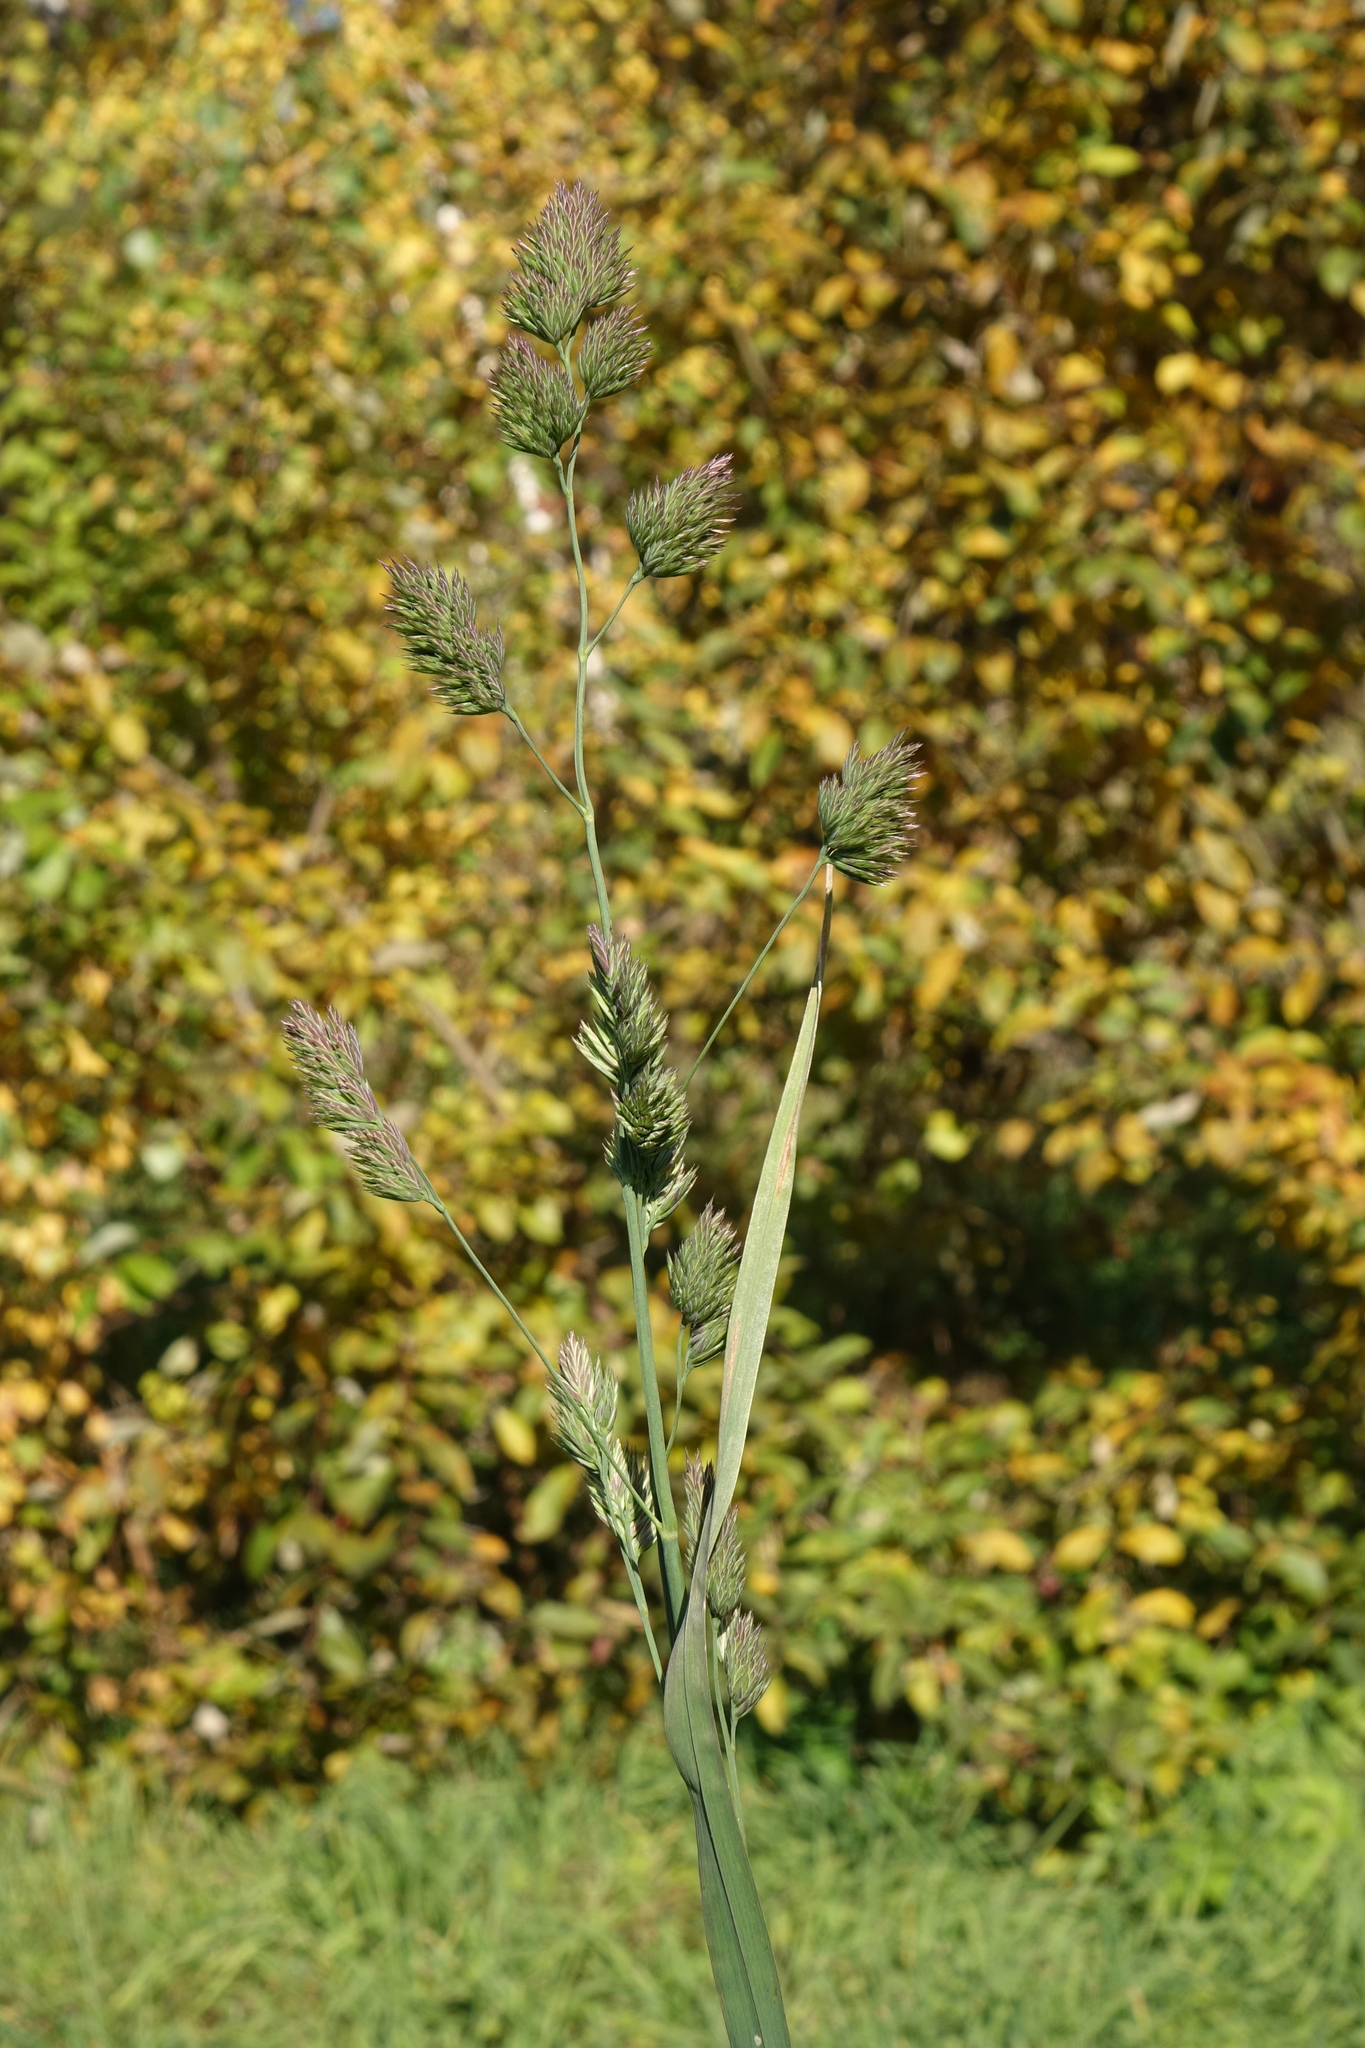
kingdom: Plantae
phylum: Tracheophyta
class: Liliopsida
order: Poales
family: Poaceae
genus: Dactylis
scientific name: Dactylis glomerata
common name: Orchardgrass
